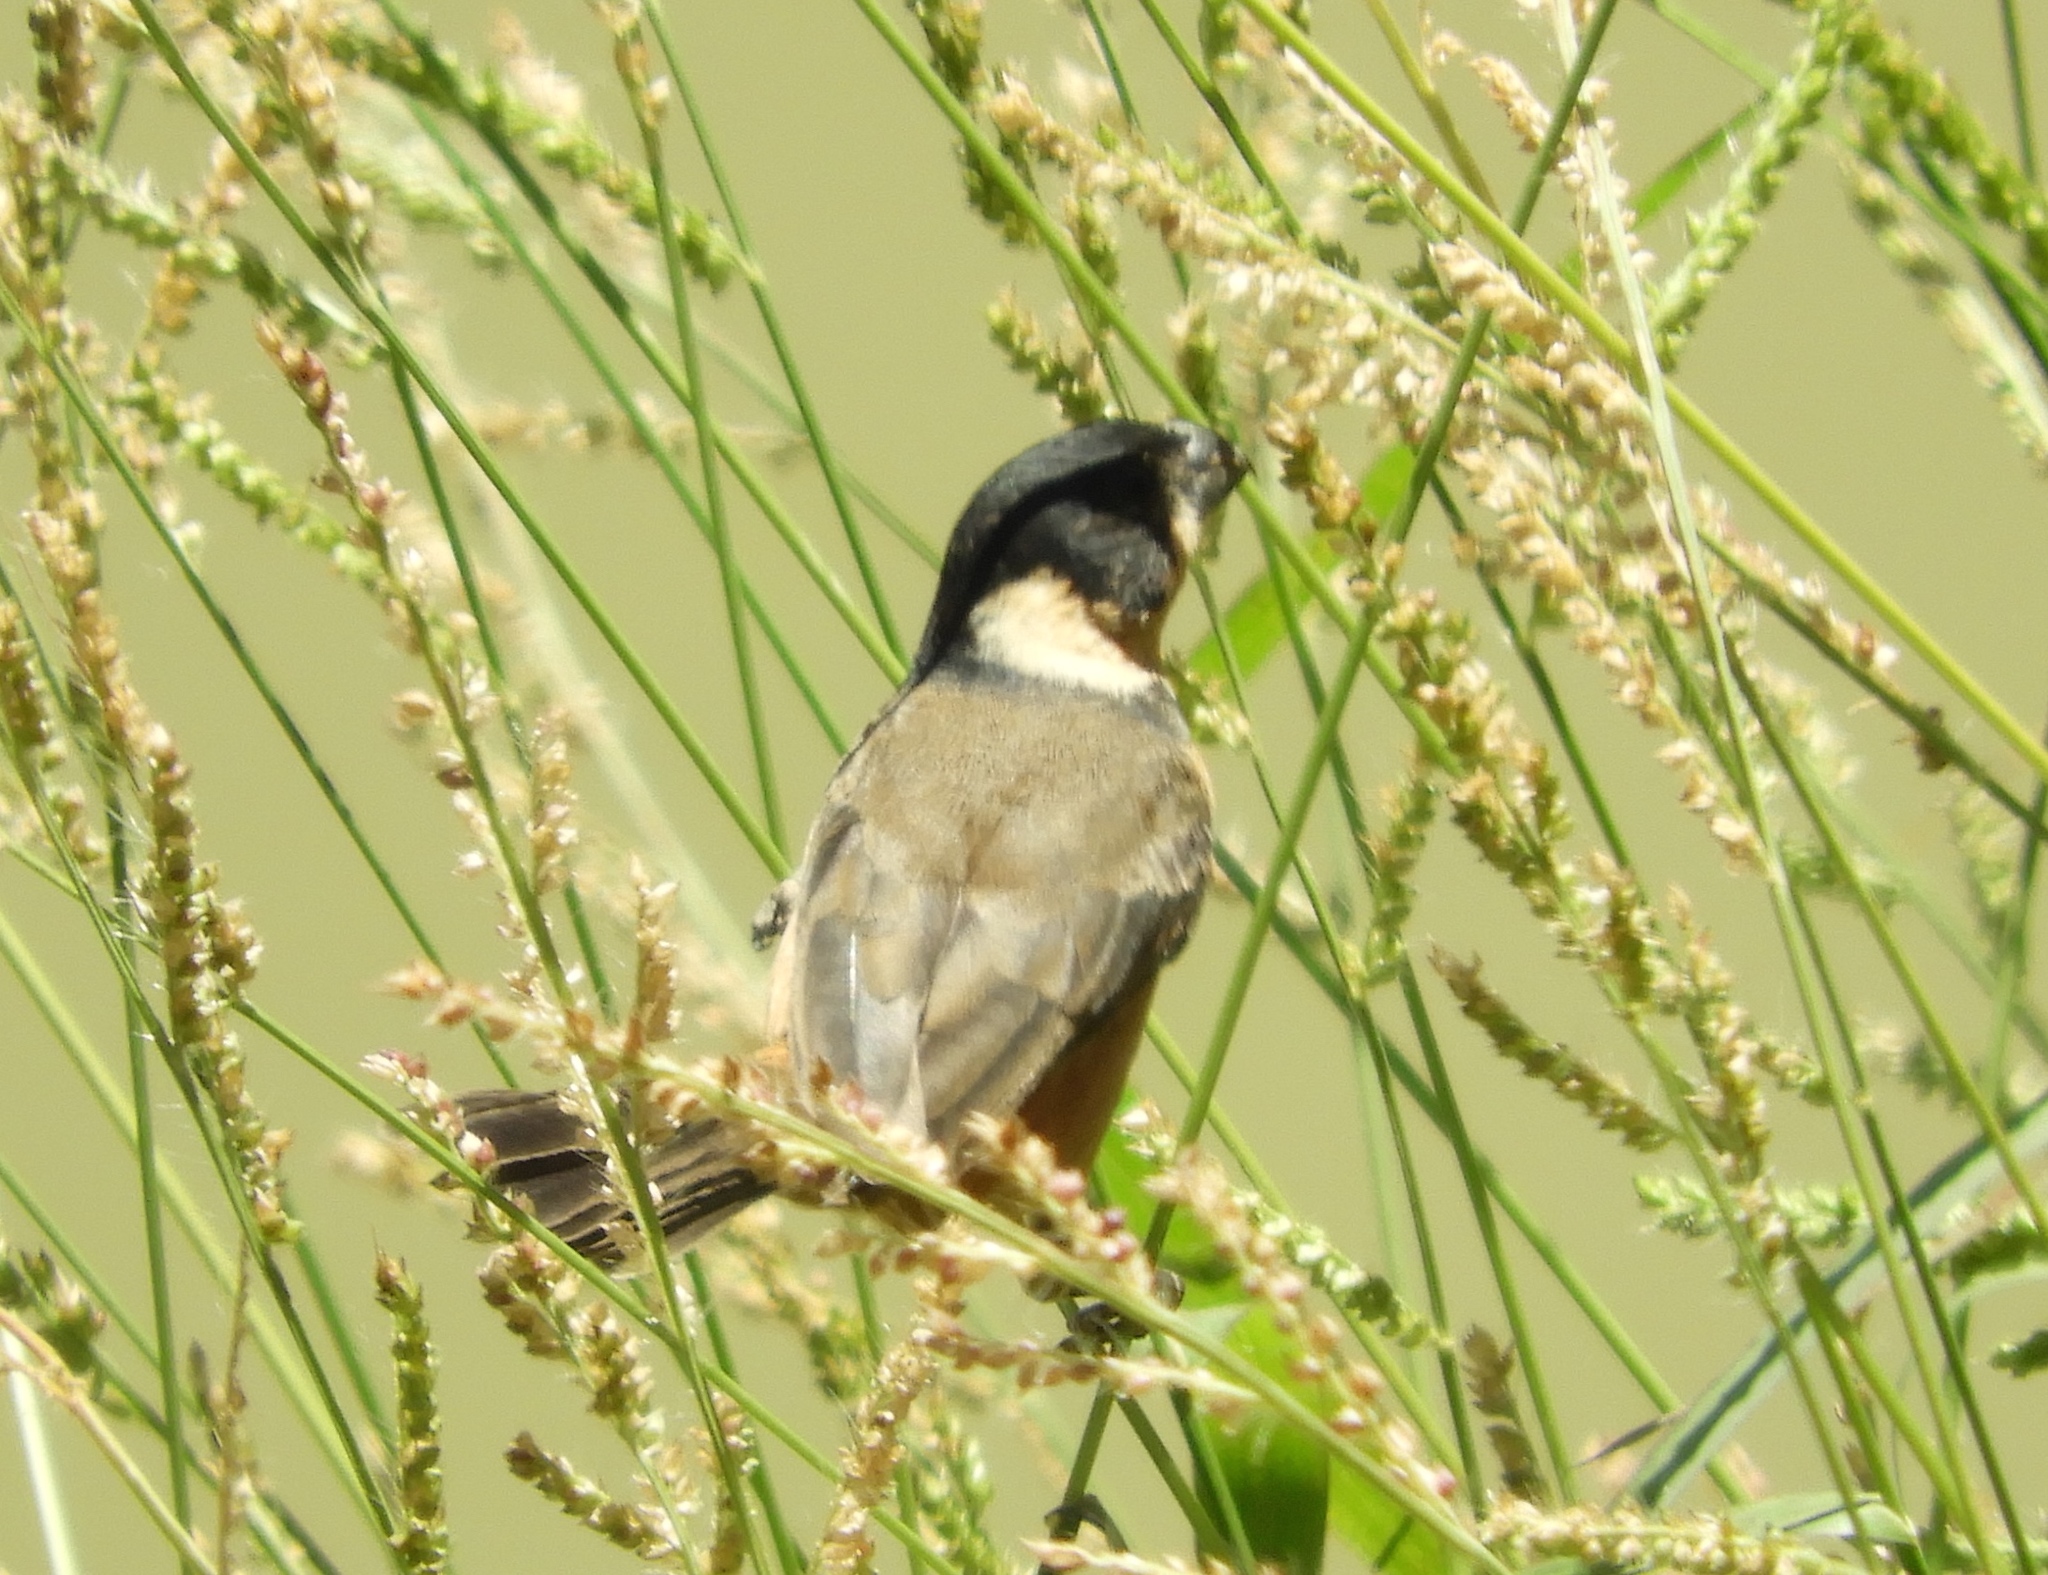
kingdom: Animalia
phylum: Chordata
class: Aves
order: Passeriformes
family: Thraupidae
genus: Sporophila
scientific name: Sporophila torqueola
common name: White-collared seedeater
